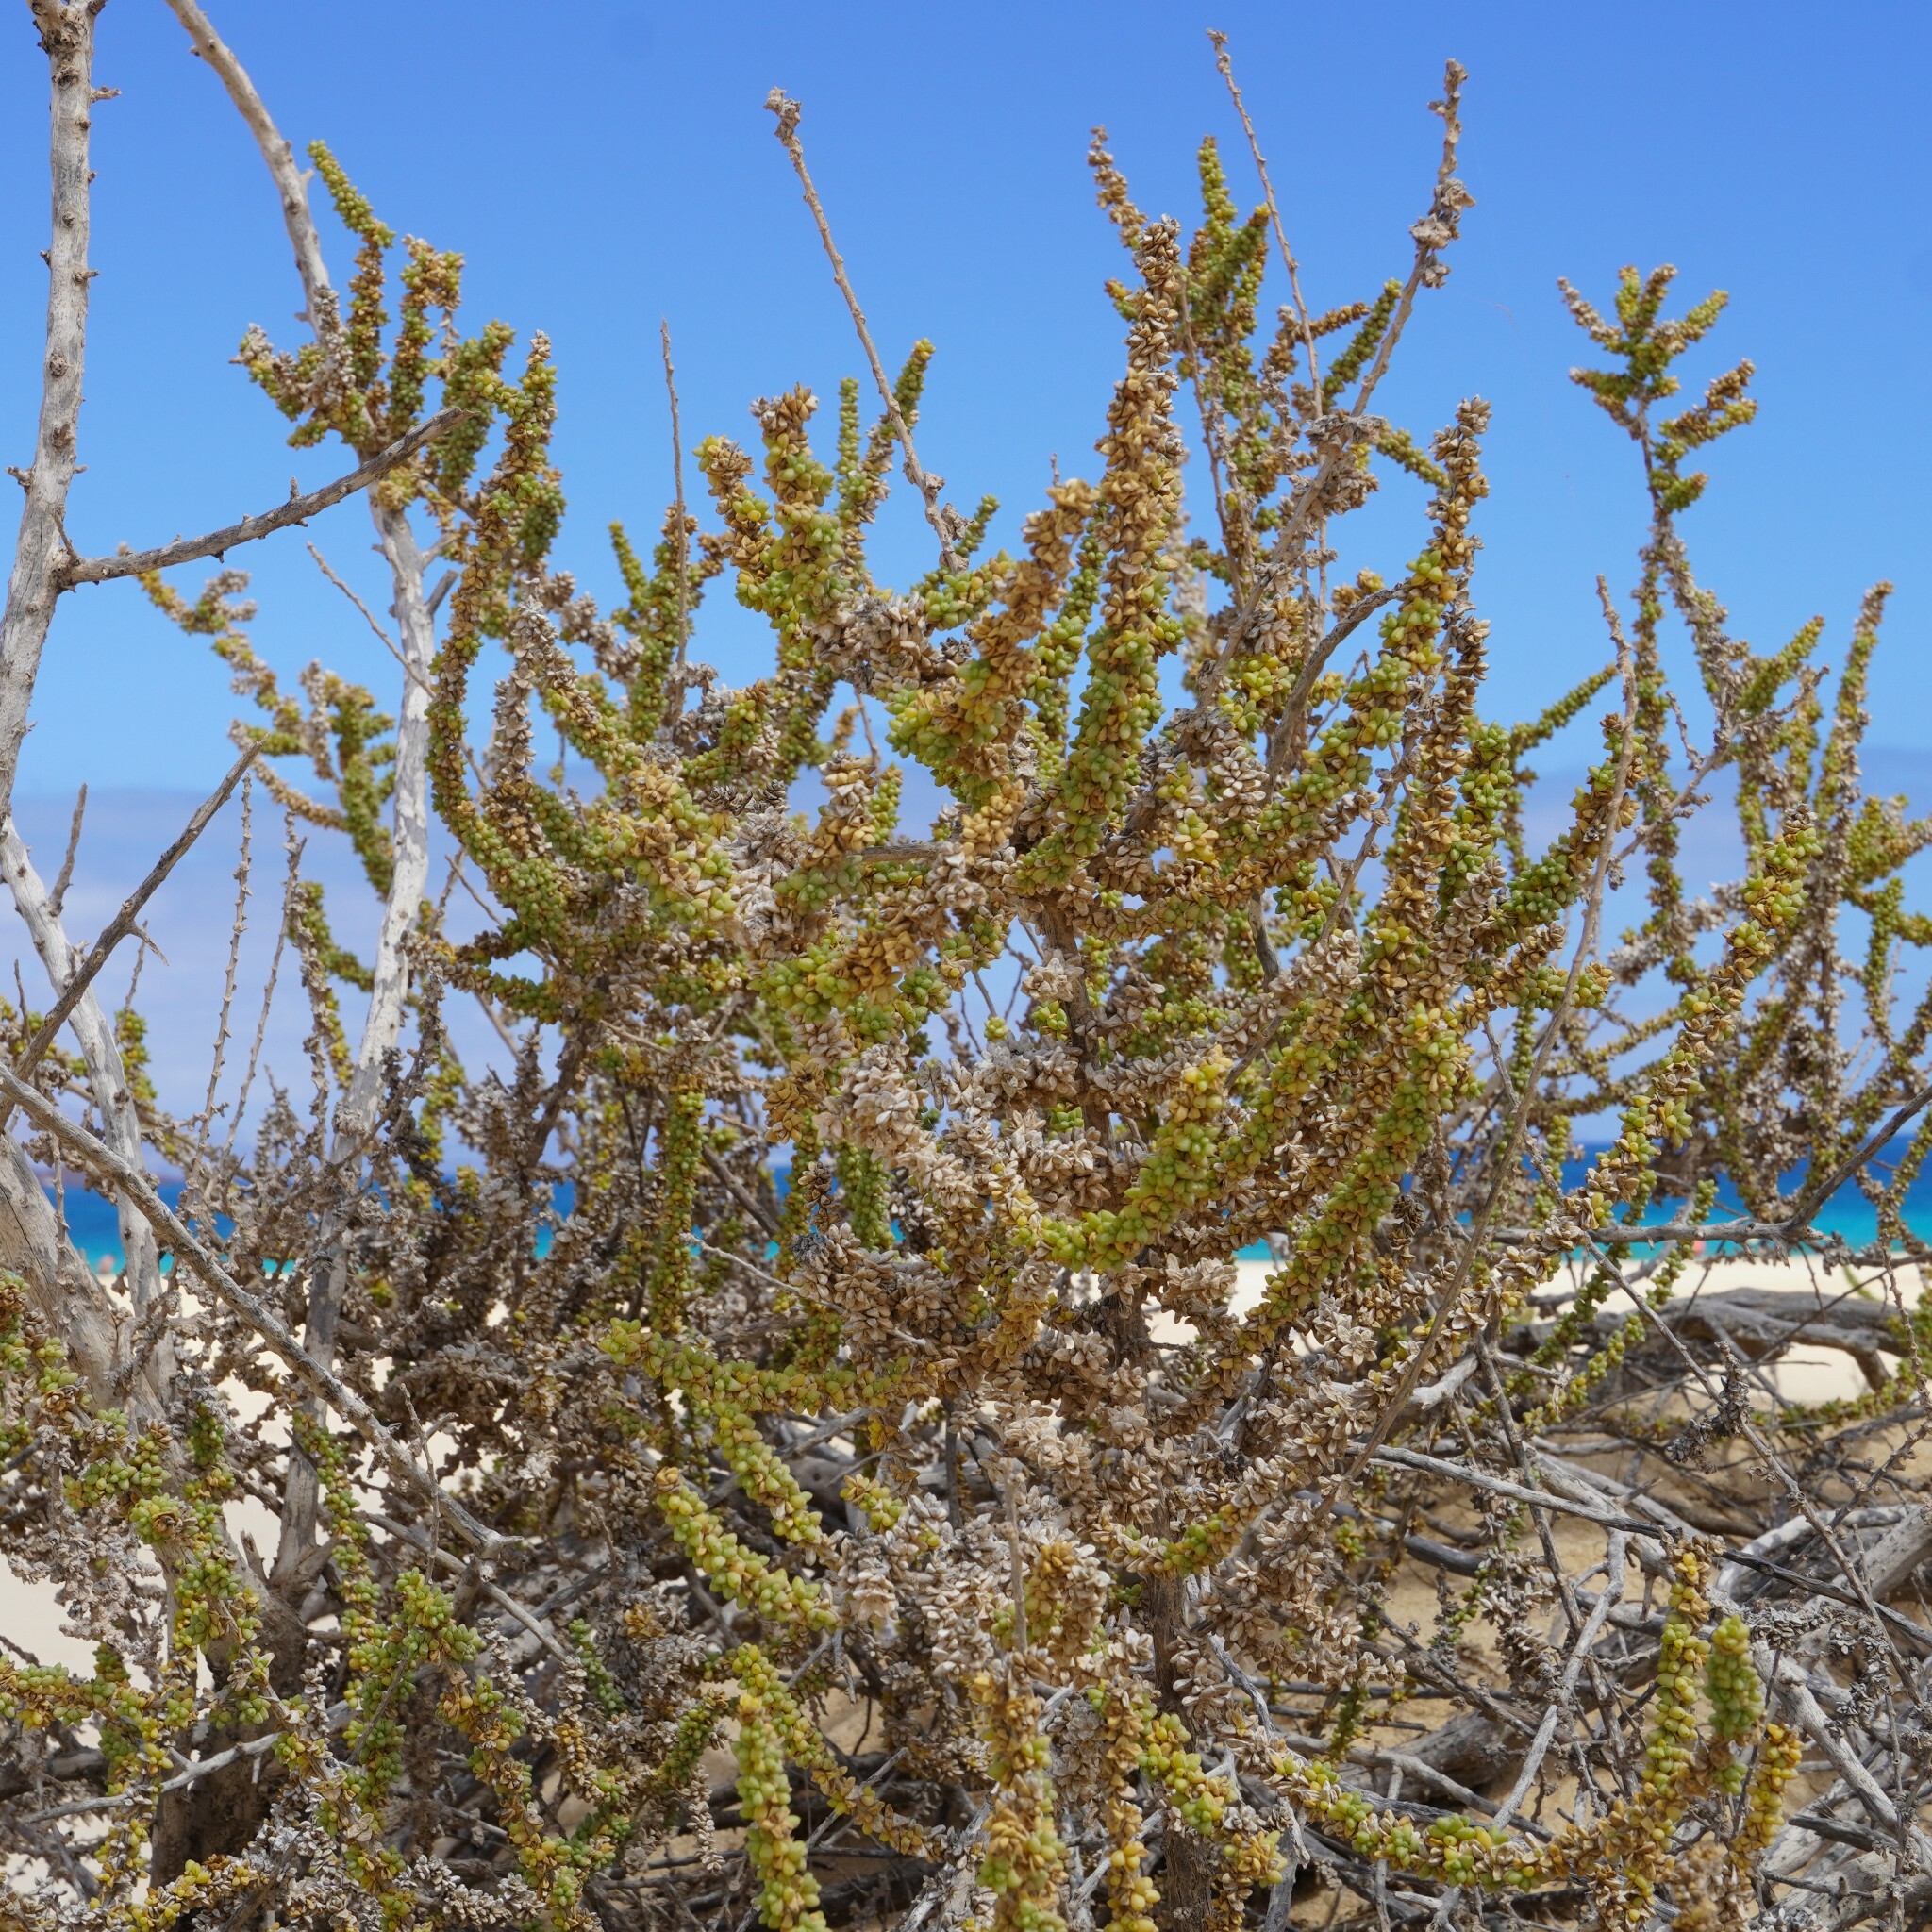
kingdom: Plantae
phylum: Tracheophyta
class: Magnoliopsida
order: Caryophyllales
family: Amaranthaceae
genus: Traganum
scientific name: Traganum moquinii
